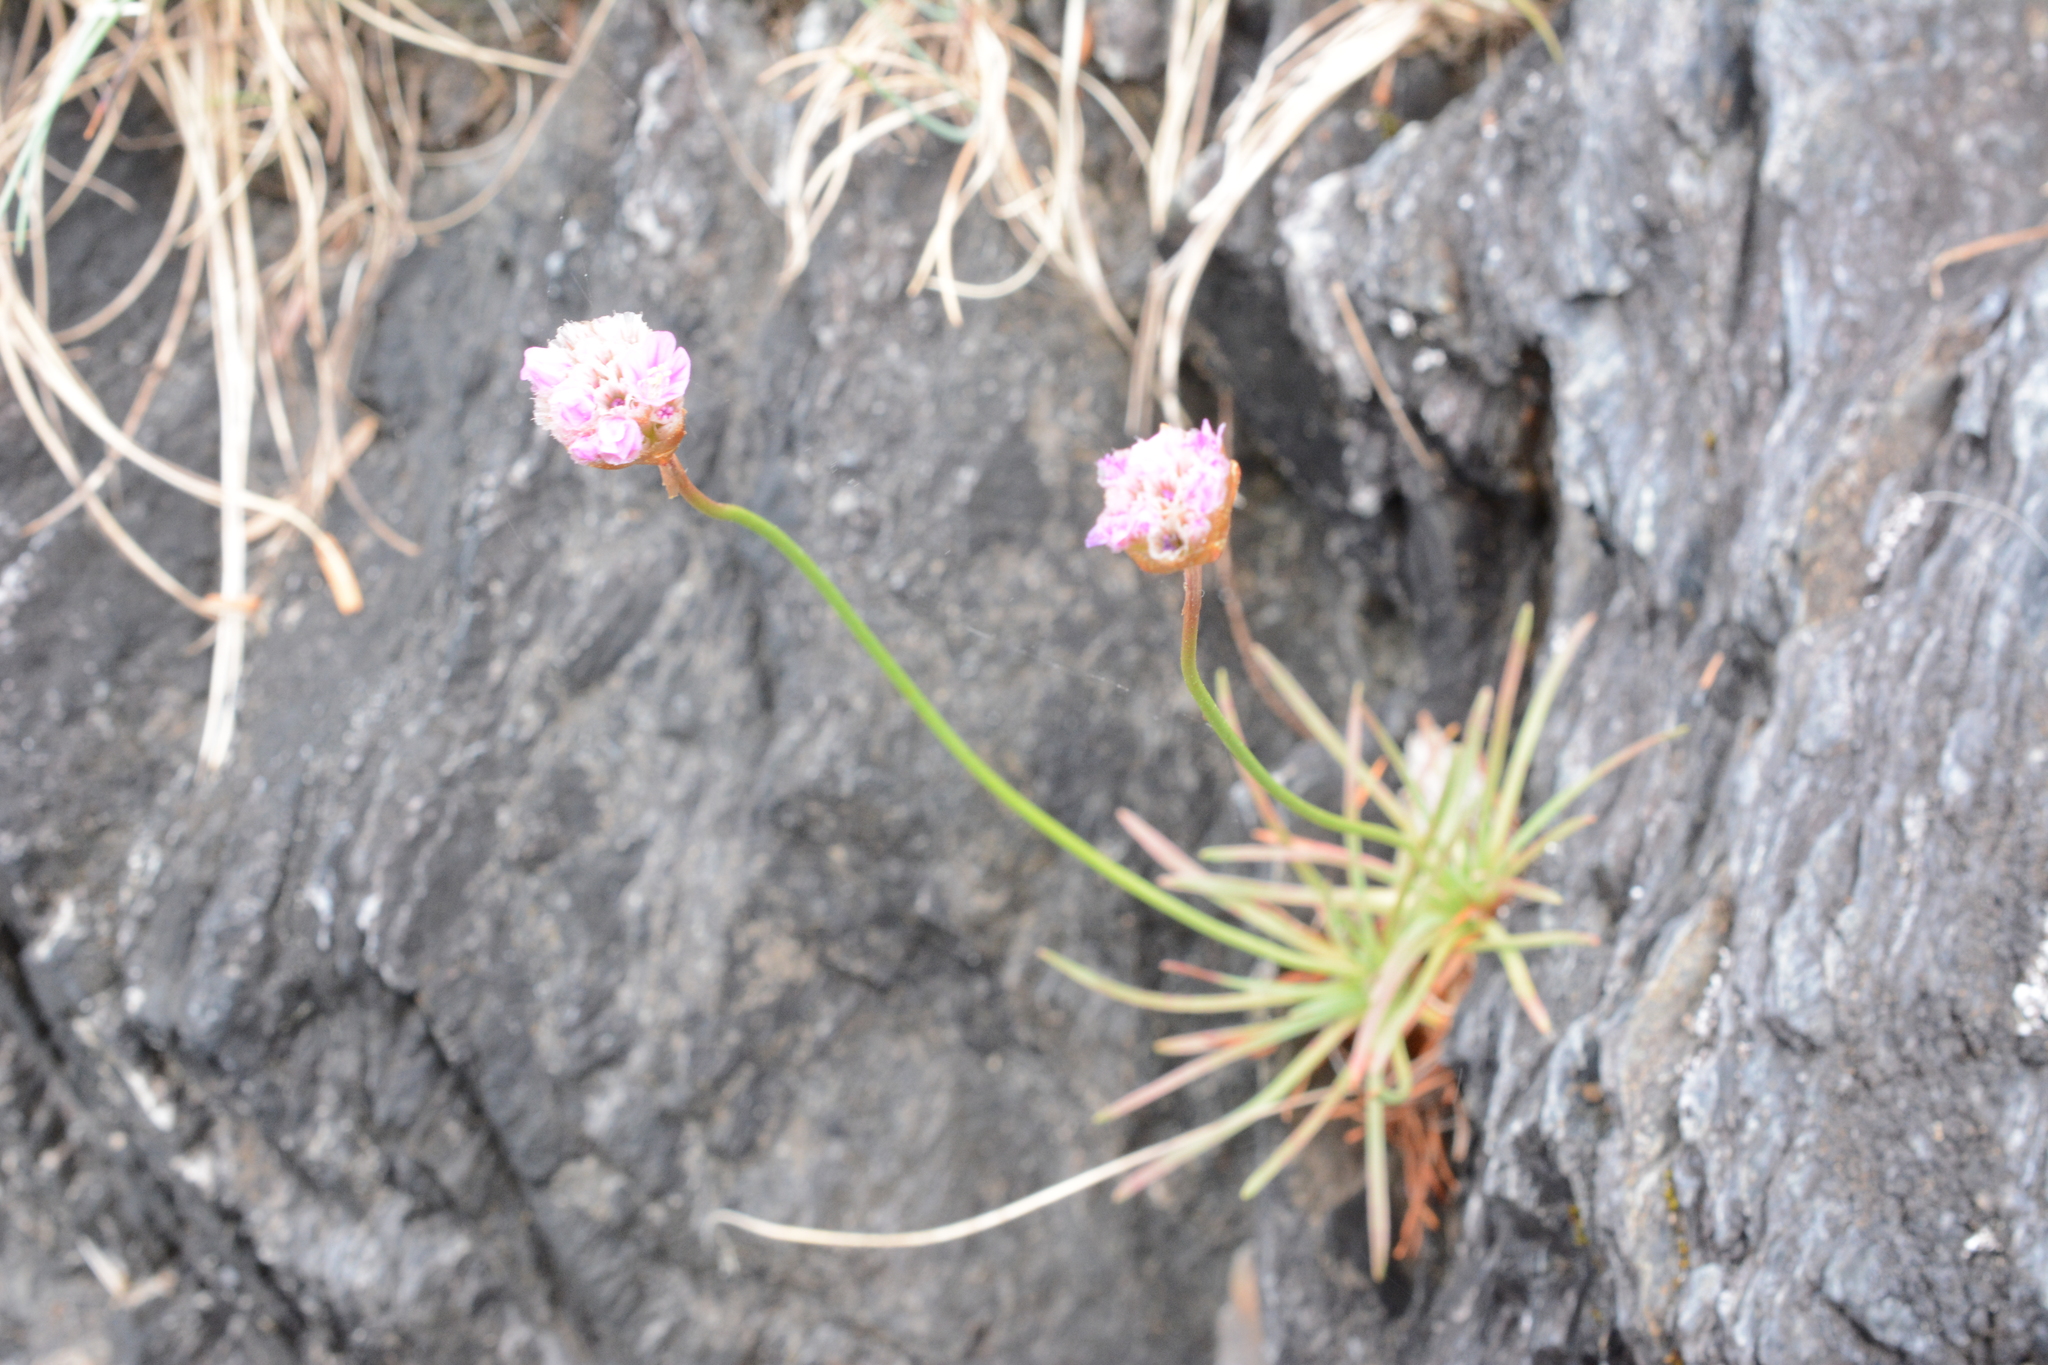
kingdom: Plantae
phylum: Tracheophyta
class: Magnoliopsida
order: Caryophyllales
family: Plumbaginaceae
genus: Armeria
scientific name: Armeria maritima
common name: Thrift
